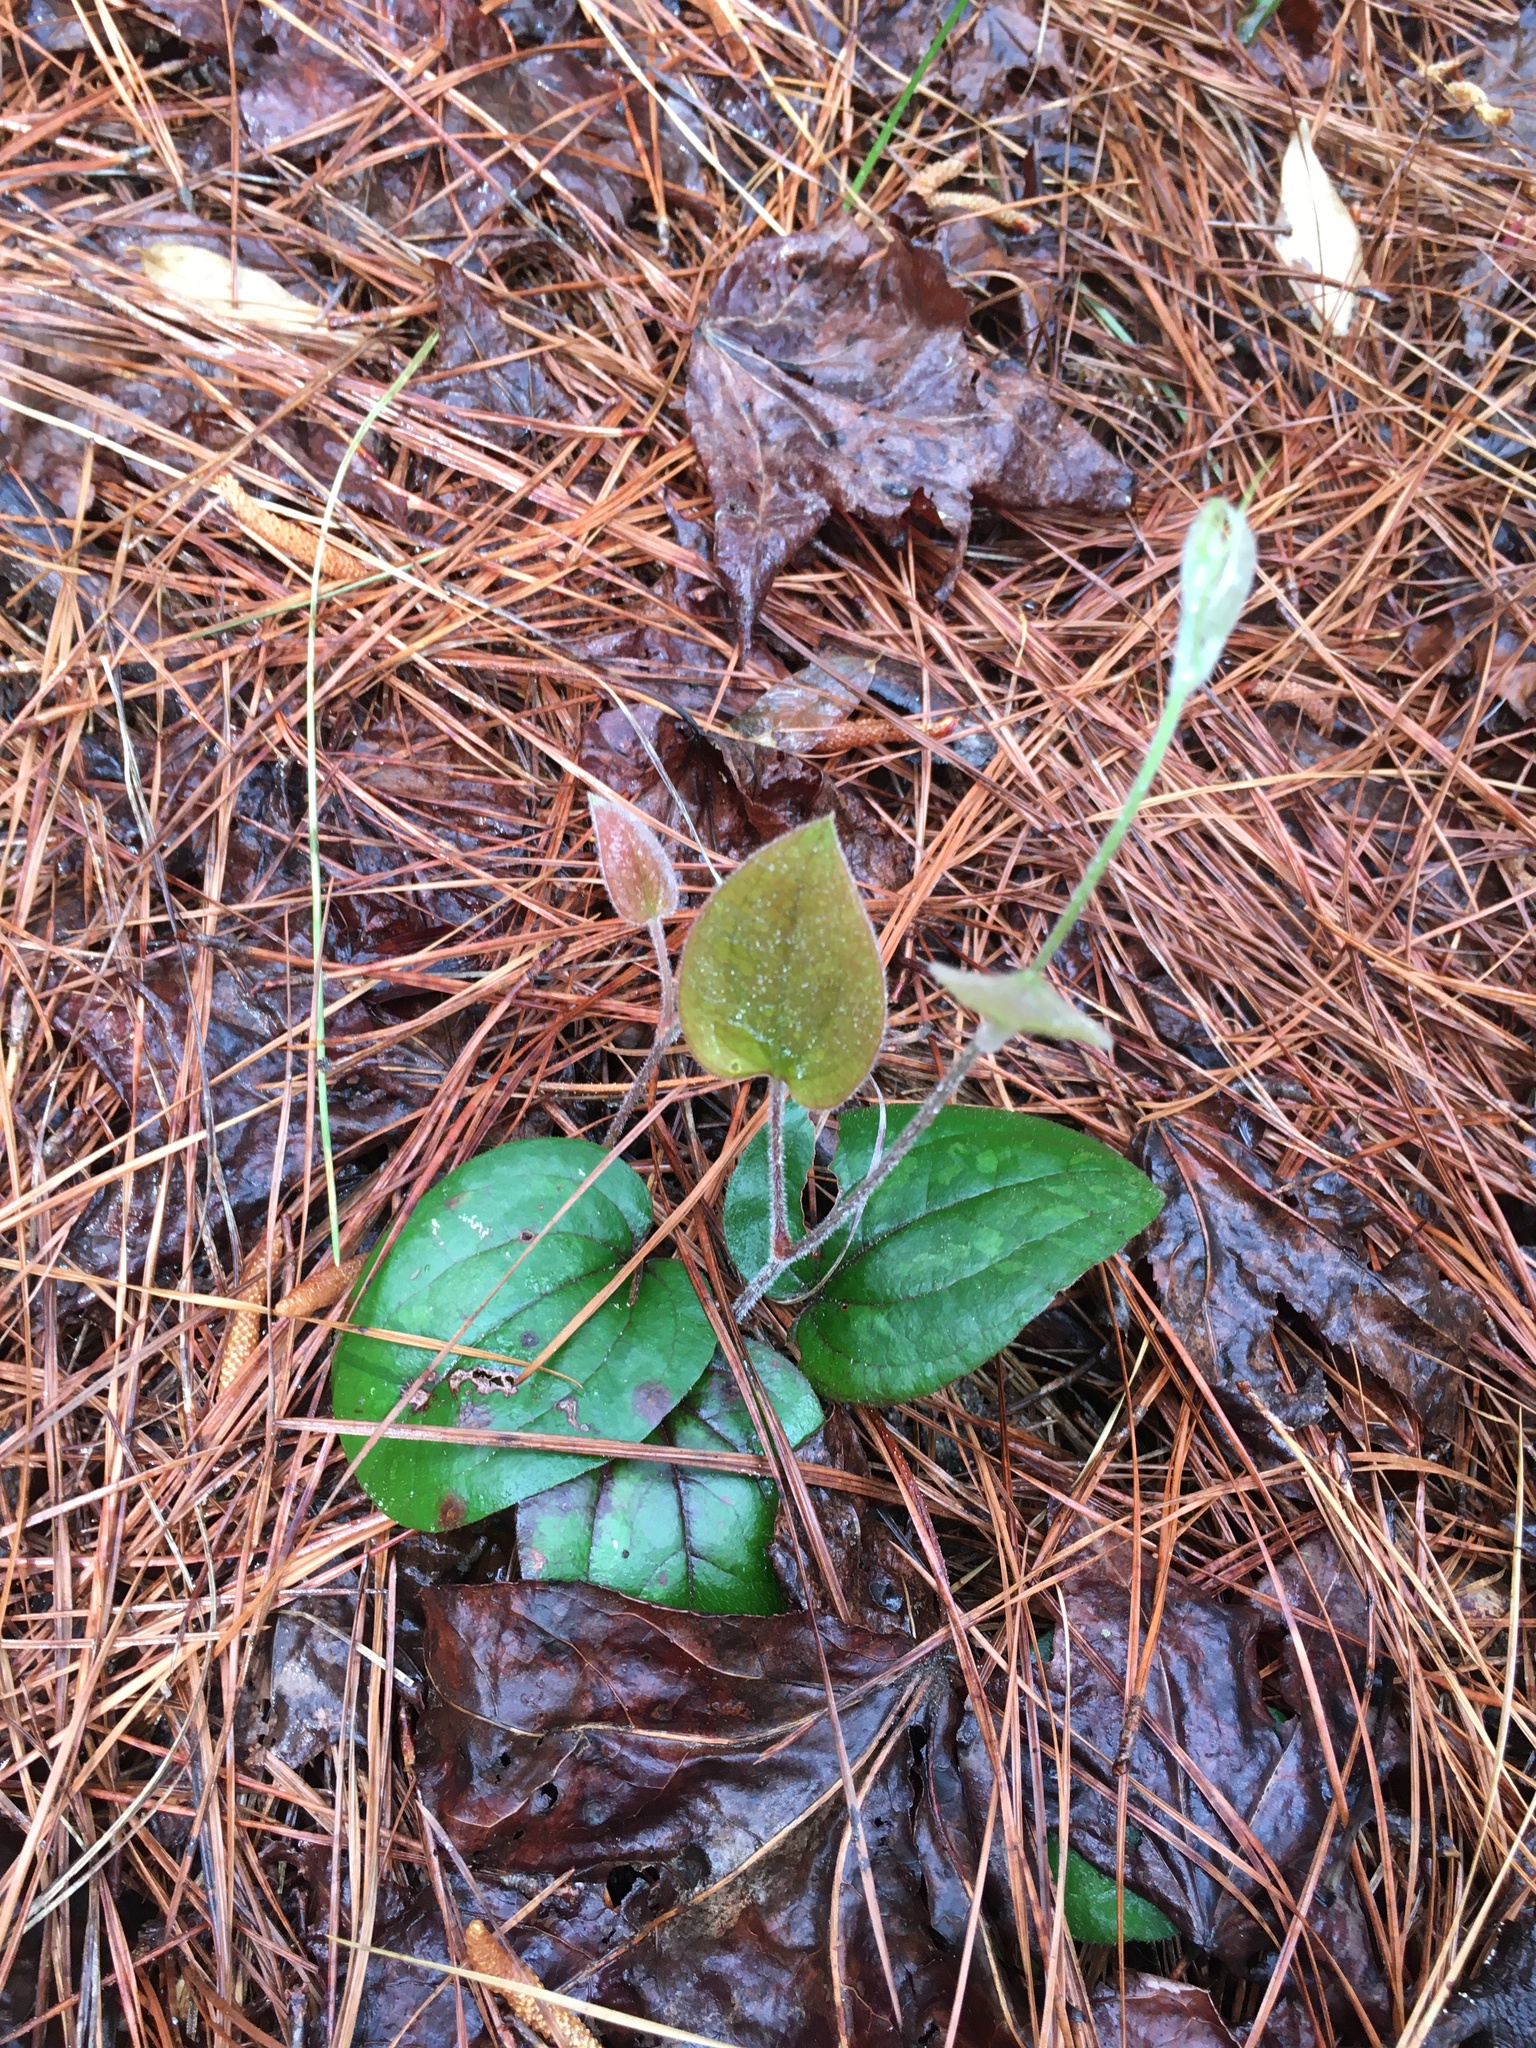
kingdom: Plantae
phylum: Tracheophyta
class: Liliopsida
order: Liliales
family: Smilacaceae
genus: Smilax
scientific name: Smilax pumila
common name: Sarsaparilla-vine
